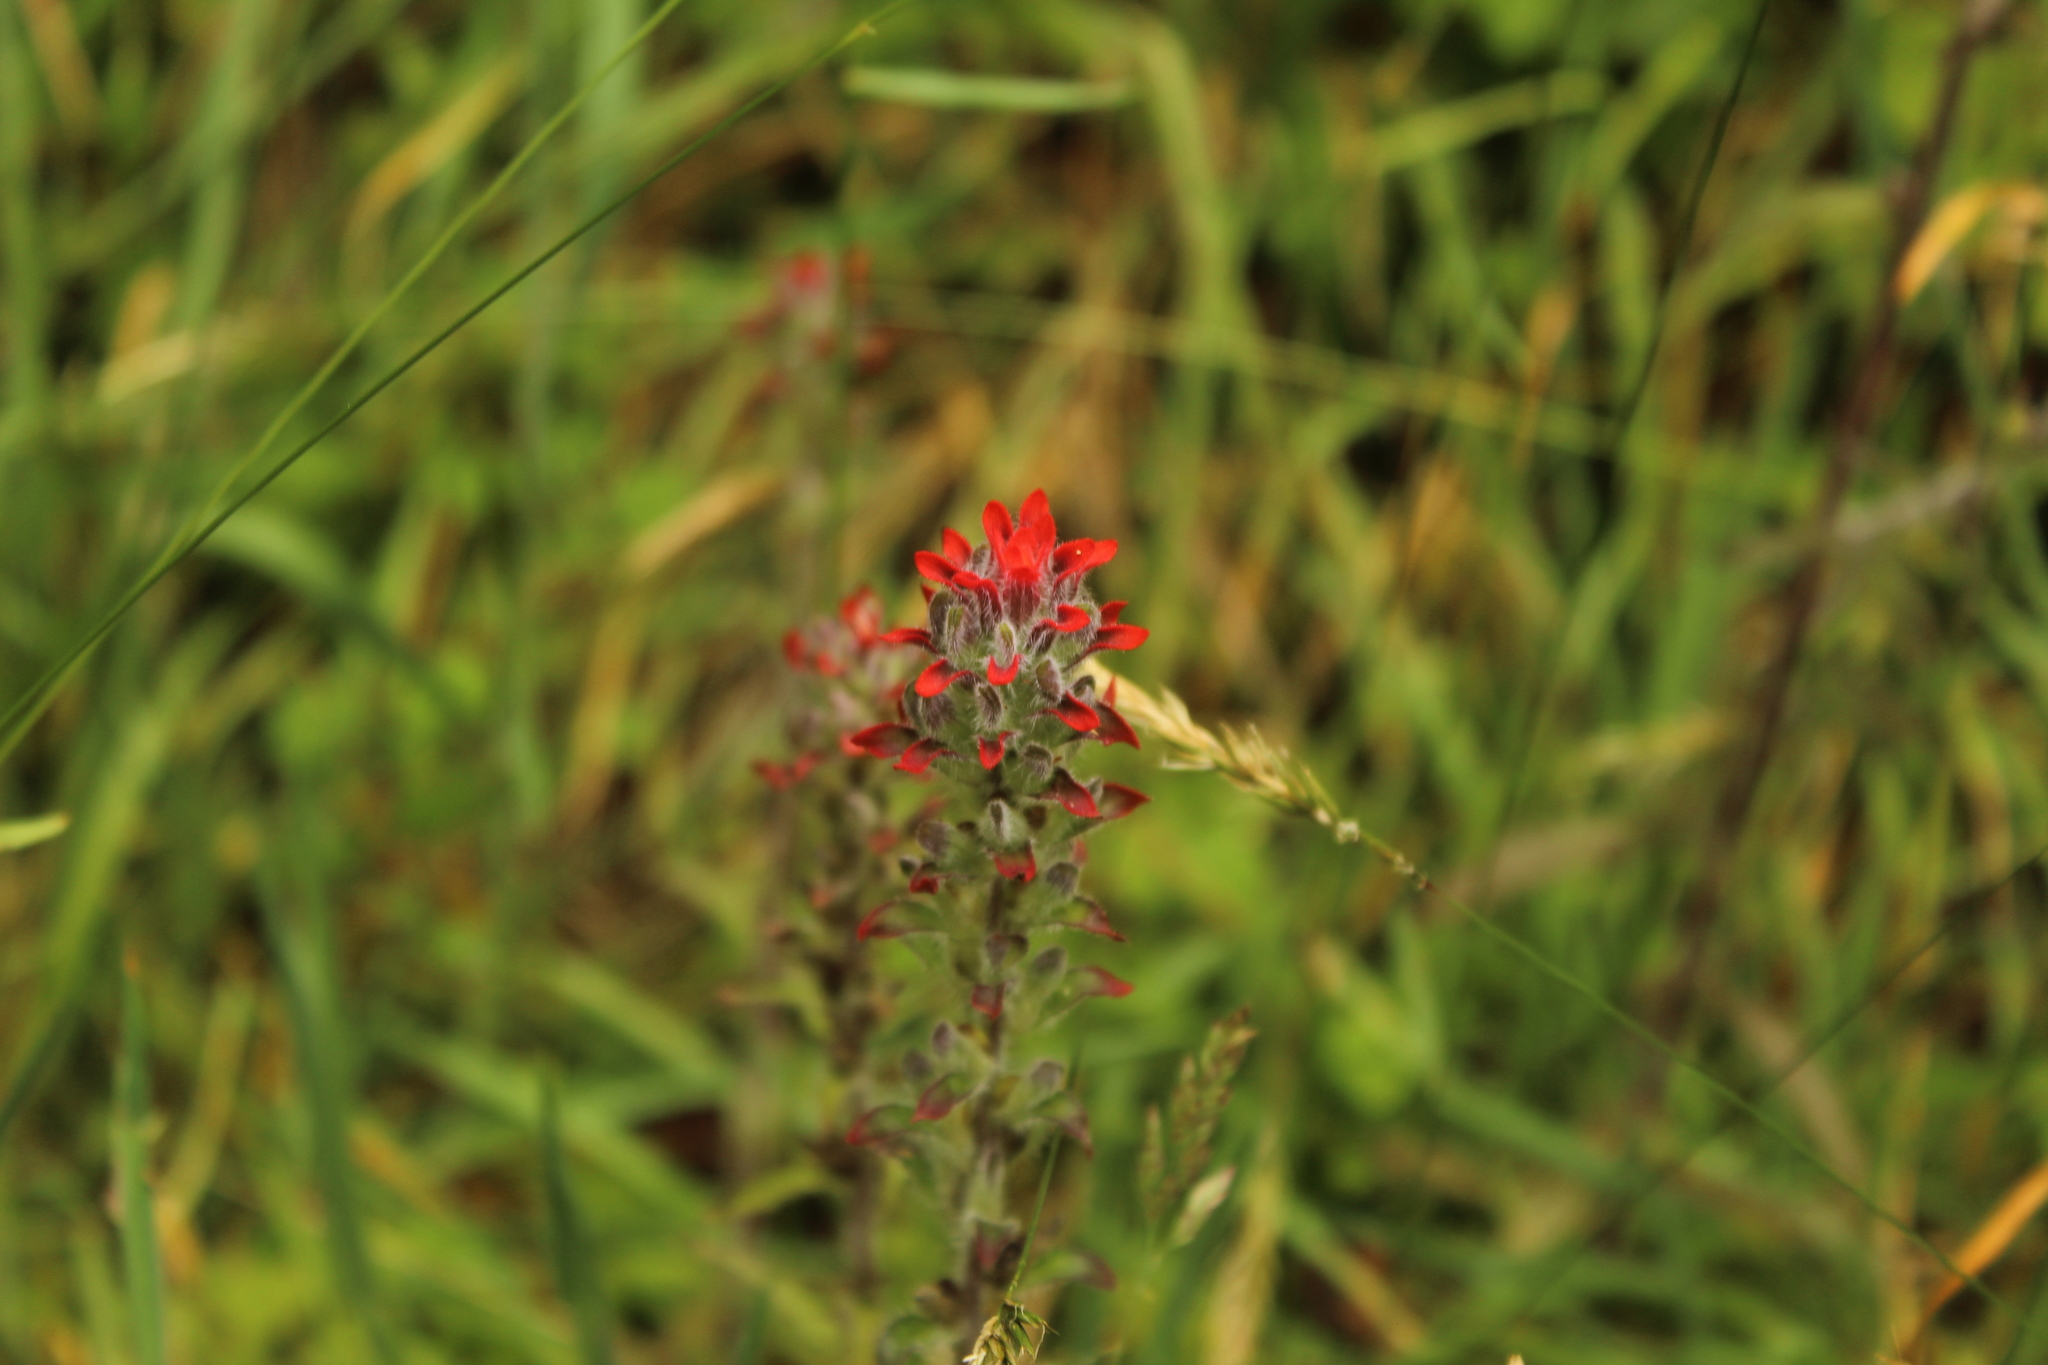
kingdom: Plantae
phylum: Tracheophyta
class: Magnoliopsida
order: Lamiales
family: Orobanchaceae
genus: Castilleja
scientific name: Castilleja arvensis
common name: Indian paintbrush
